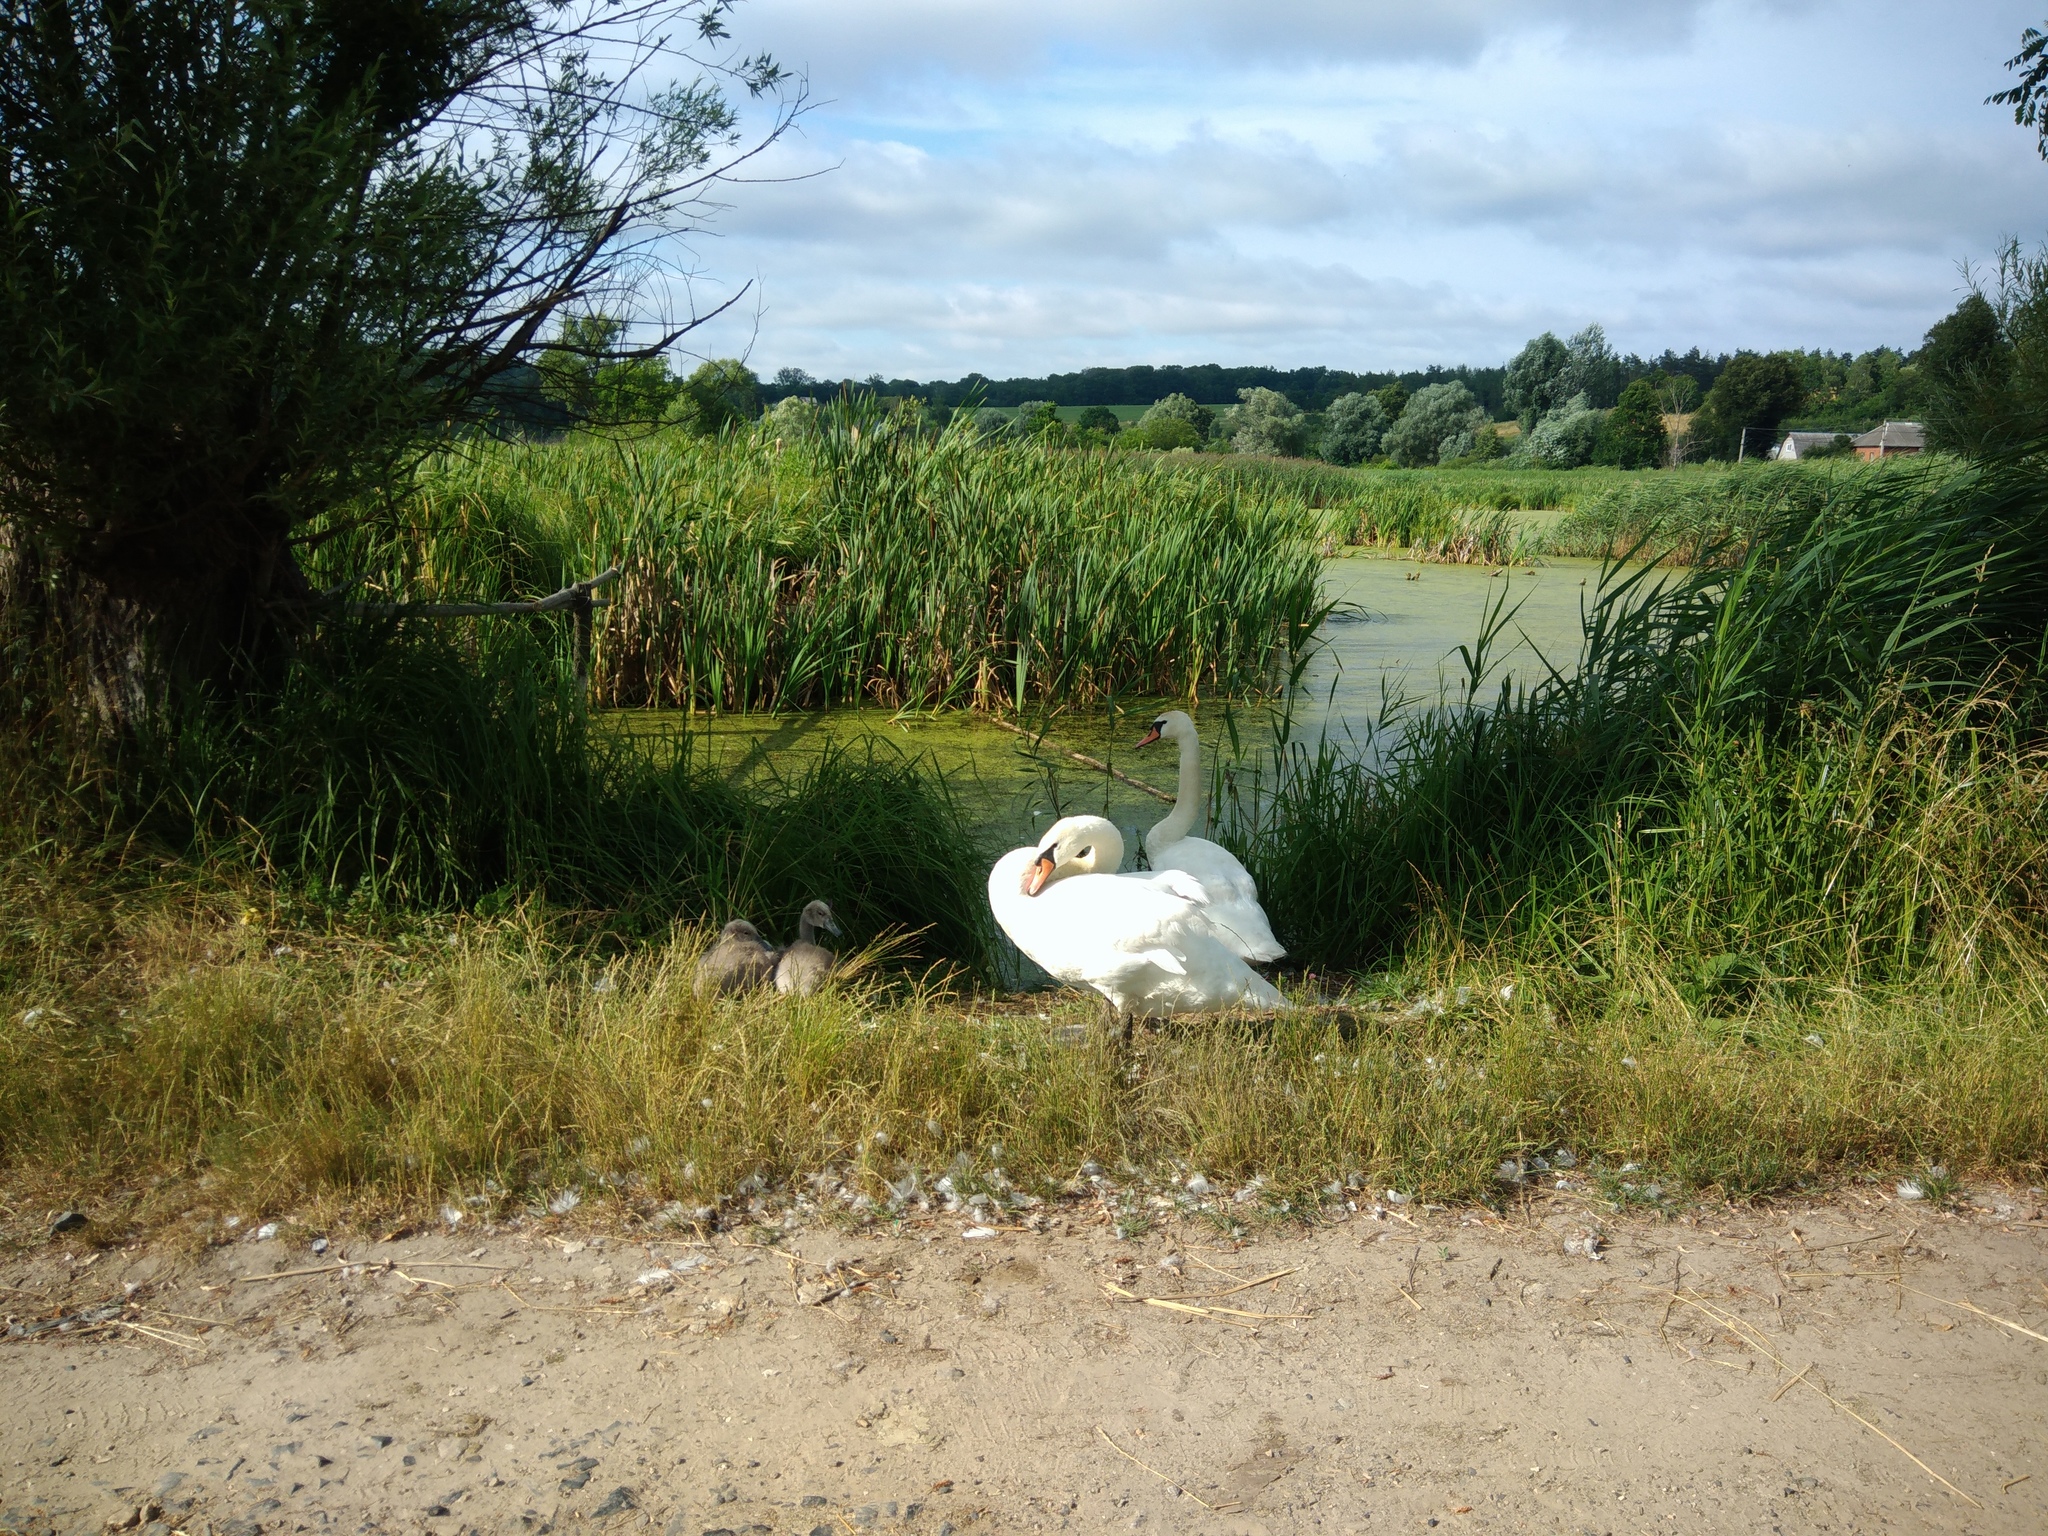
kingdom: Animalia
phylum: Chordata
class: Aves
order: Anseriformes
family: Anatidae
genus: Cygnus
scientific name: Cygnus olor
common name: Mute swan
